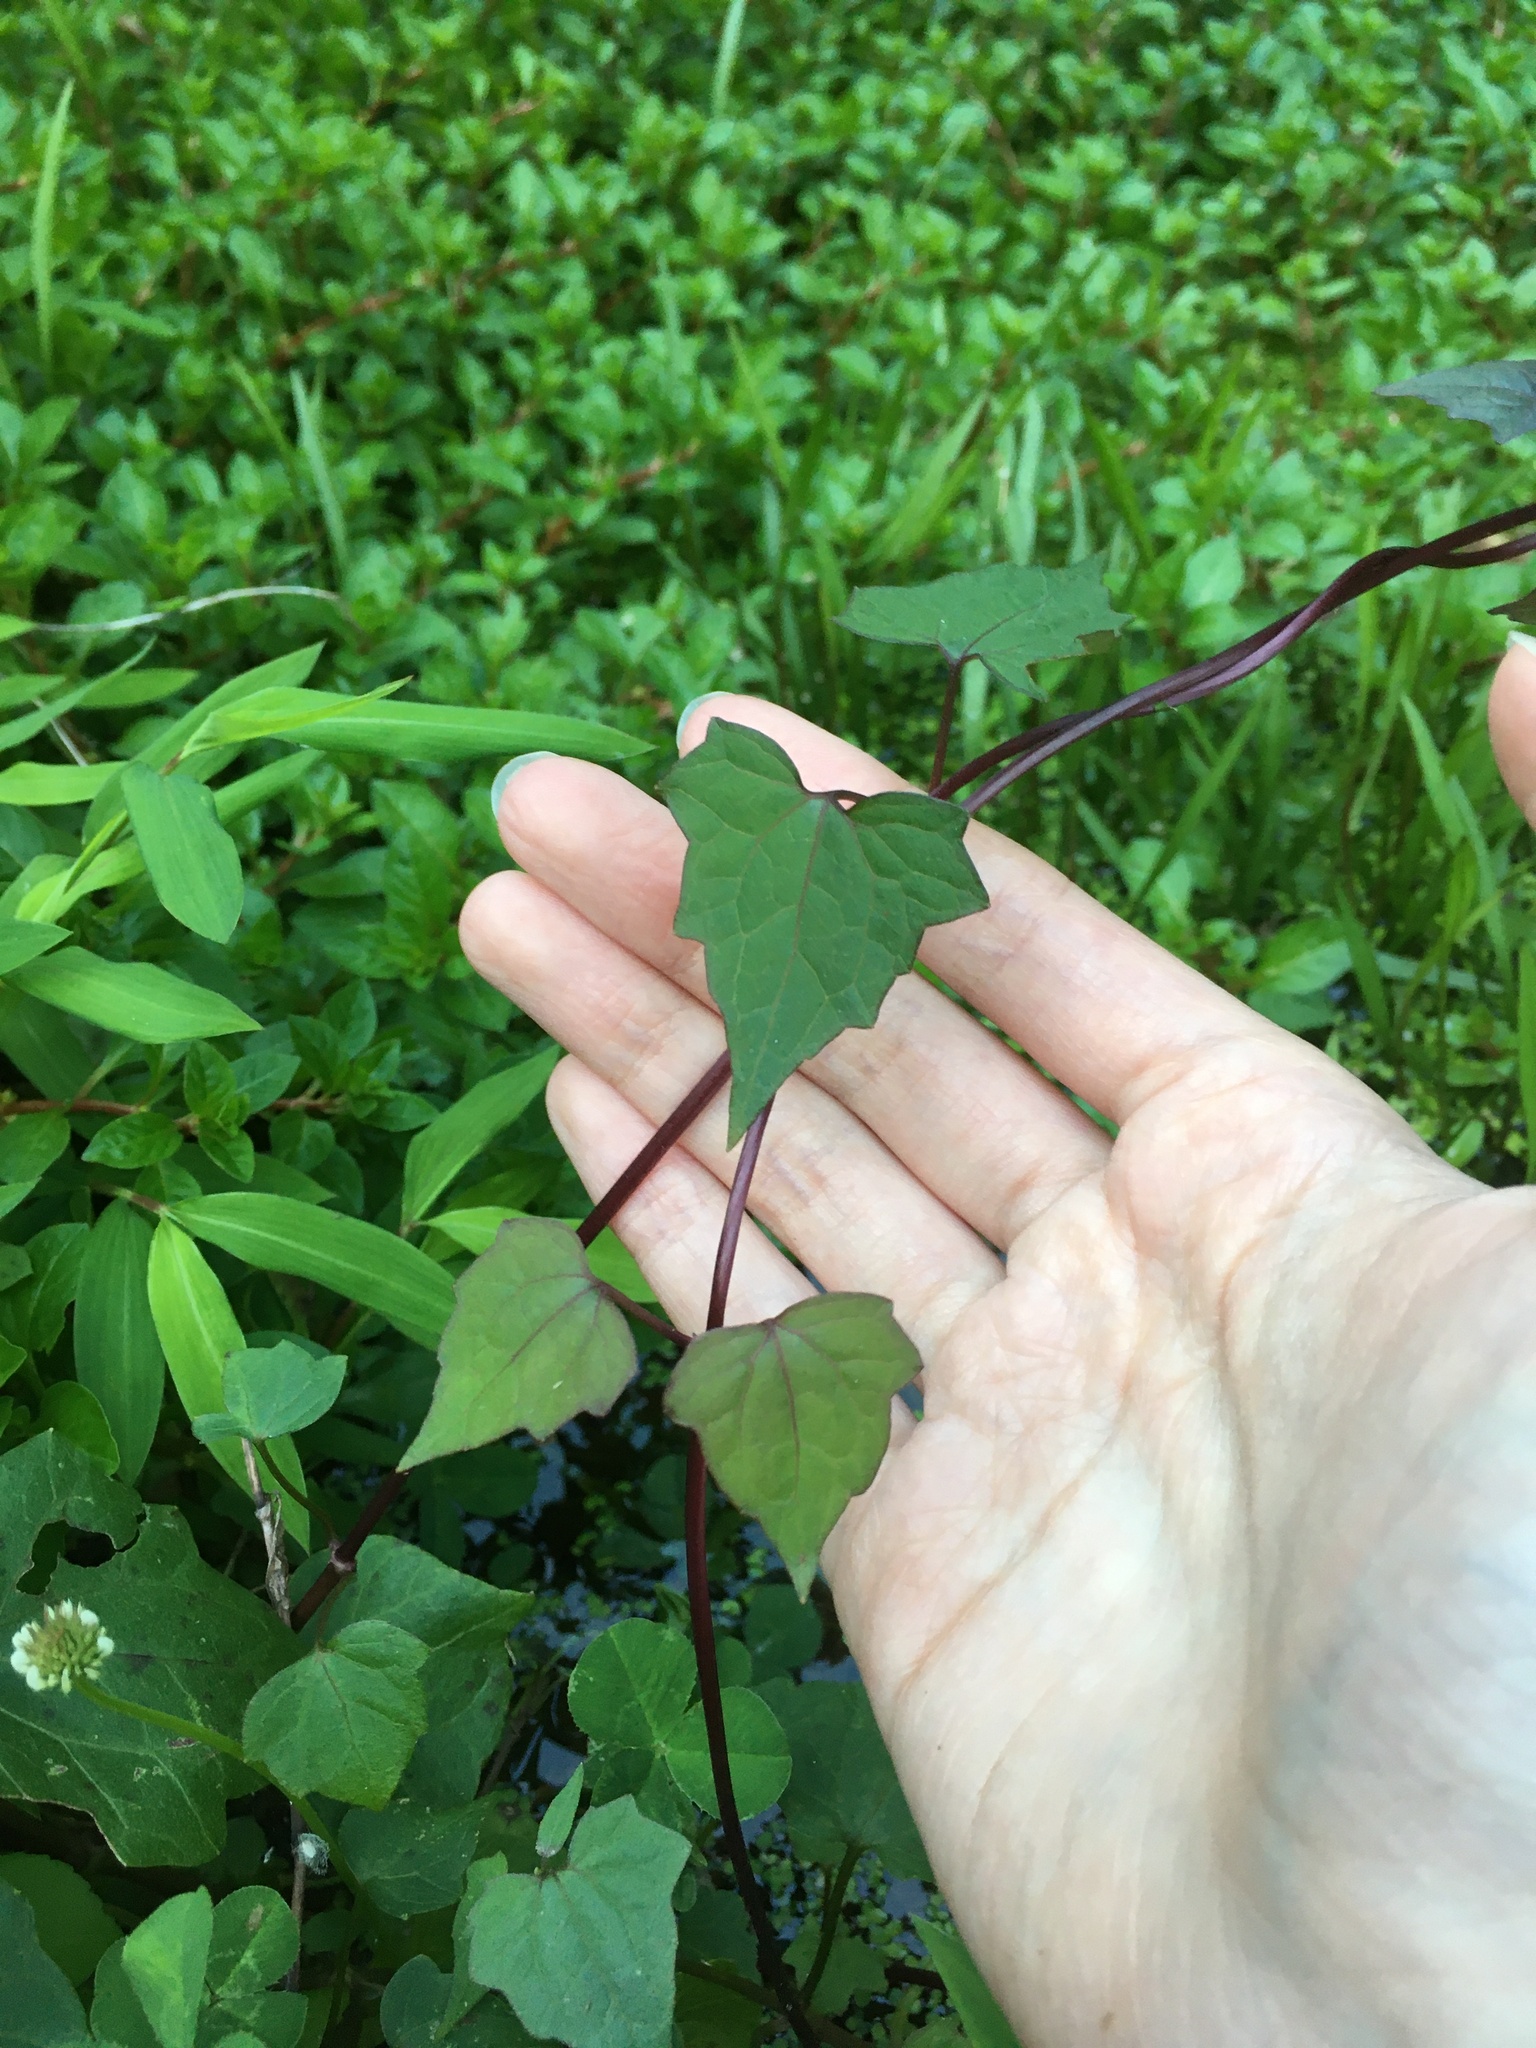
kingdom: Plantae
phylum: Tracheophyta
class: Magnoliopsida
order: Asterales
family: Asteraceae
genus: Mikania
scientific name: Mikania scandens
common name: Climbing hempvine
